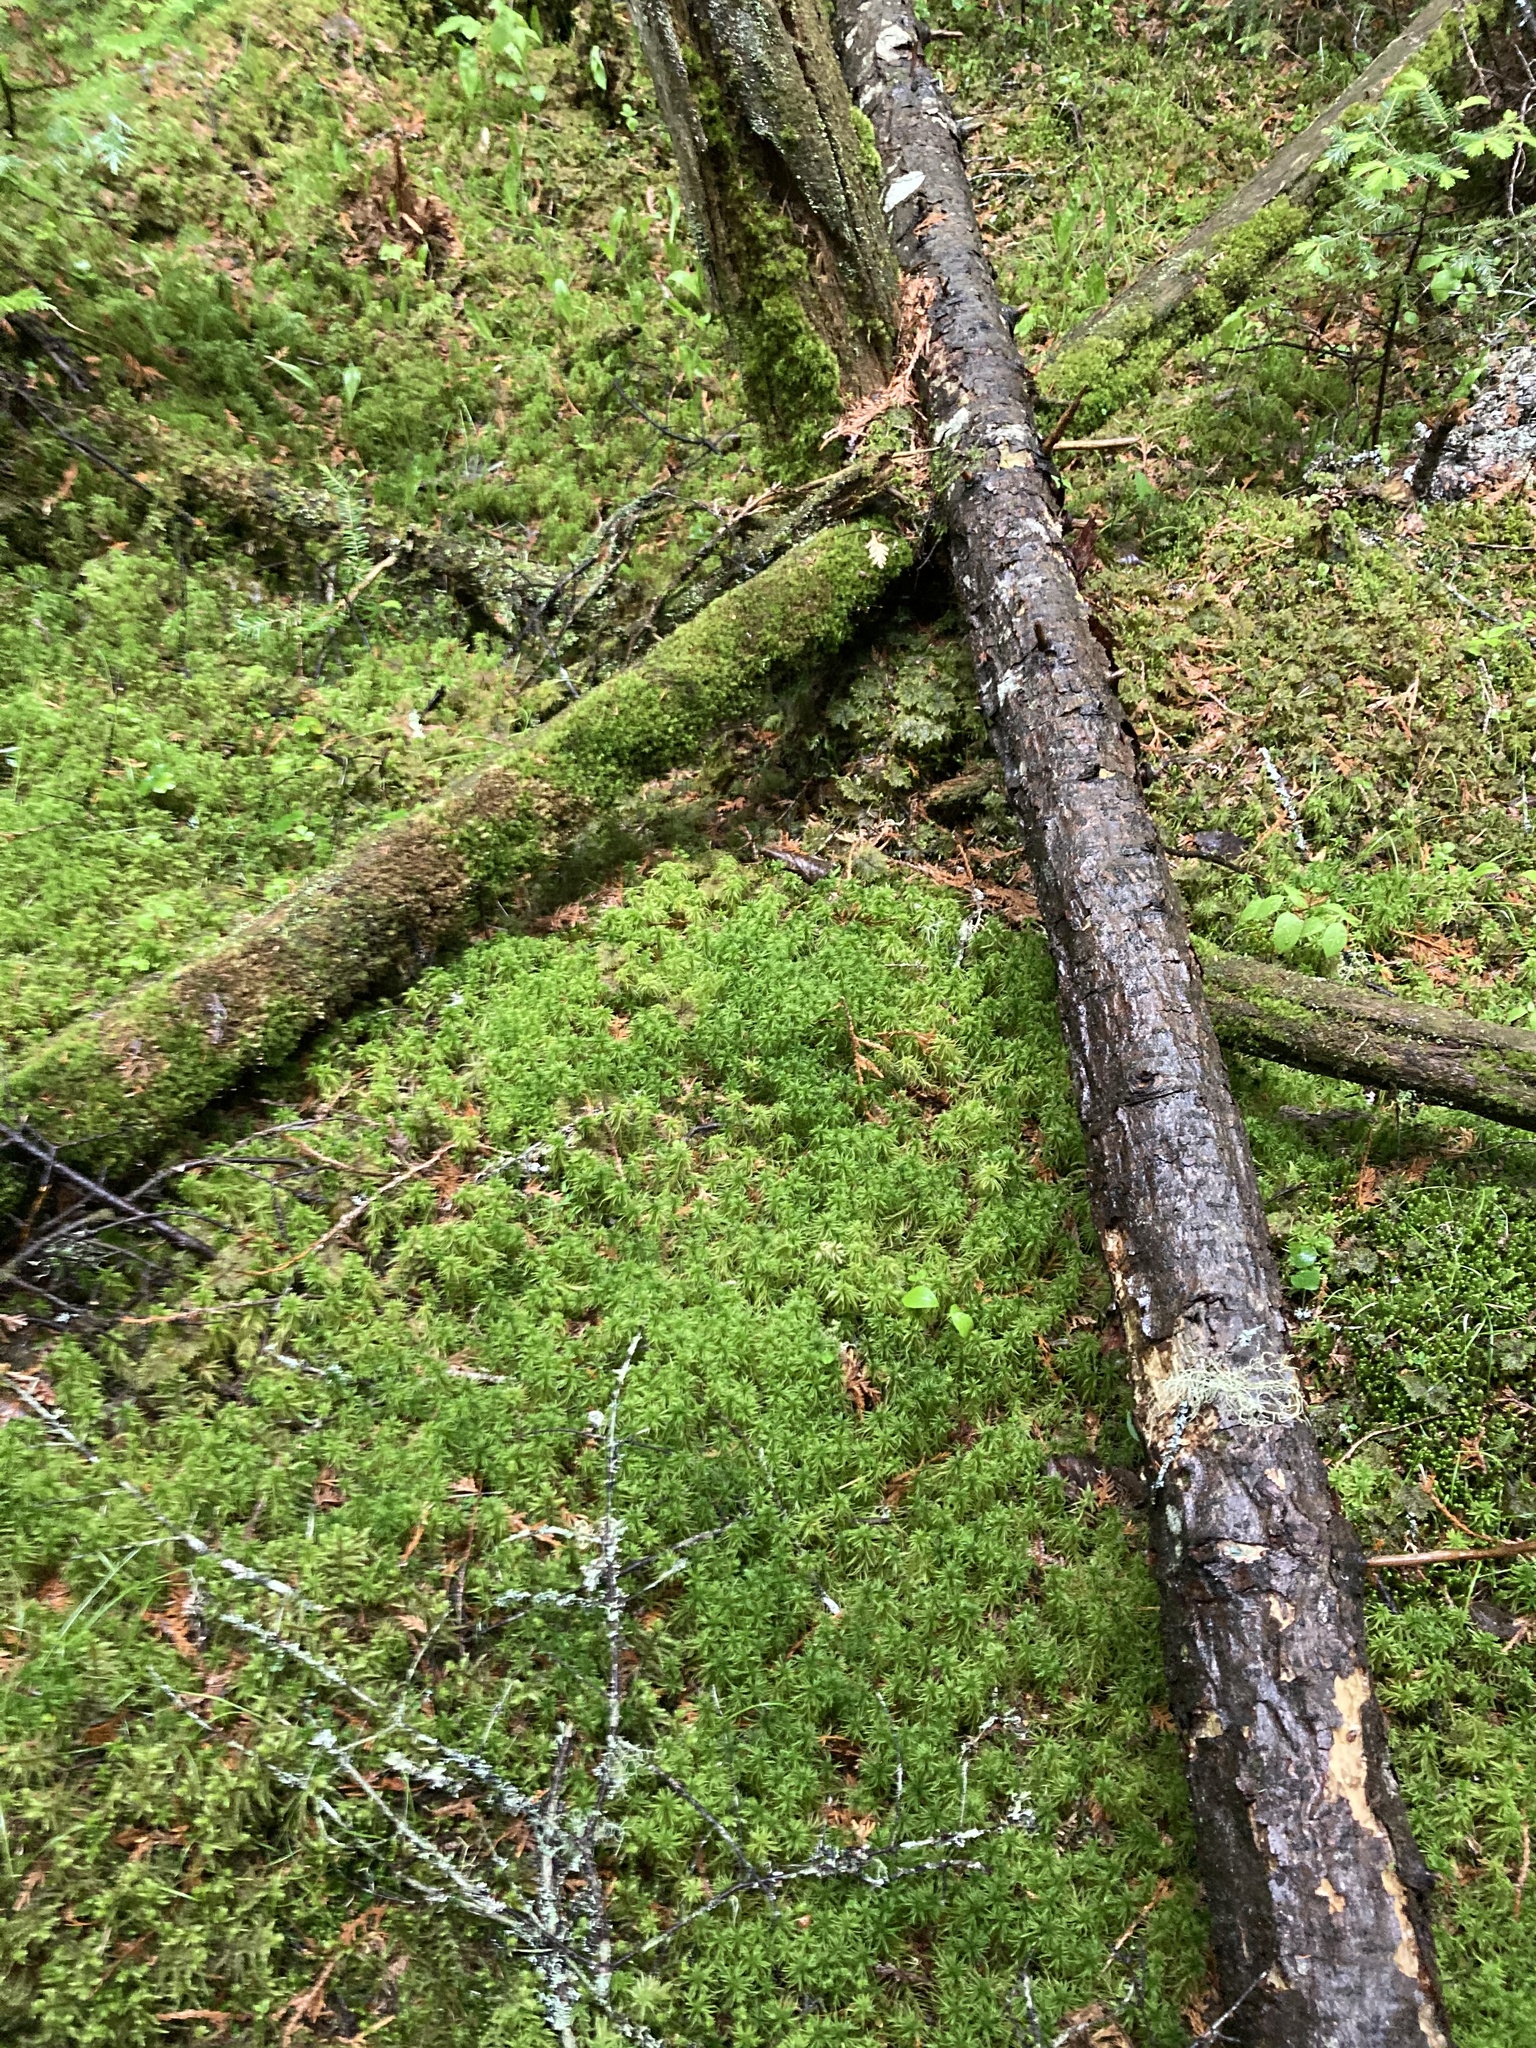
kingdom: Plantae
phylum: Tracheophyta
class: Liliopsida
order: Asparagales
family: Orchidaceae
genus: Neottia
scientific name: Neottia cordata
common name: Lesser twayblade
